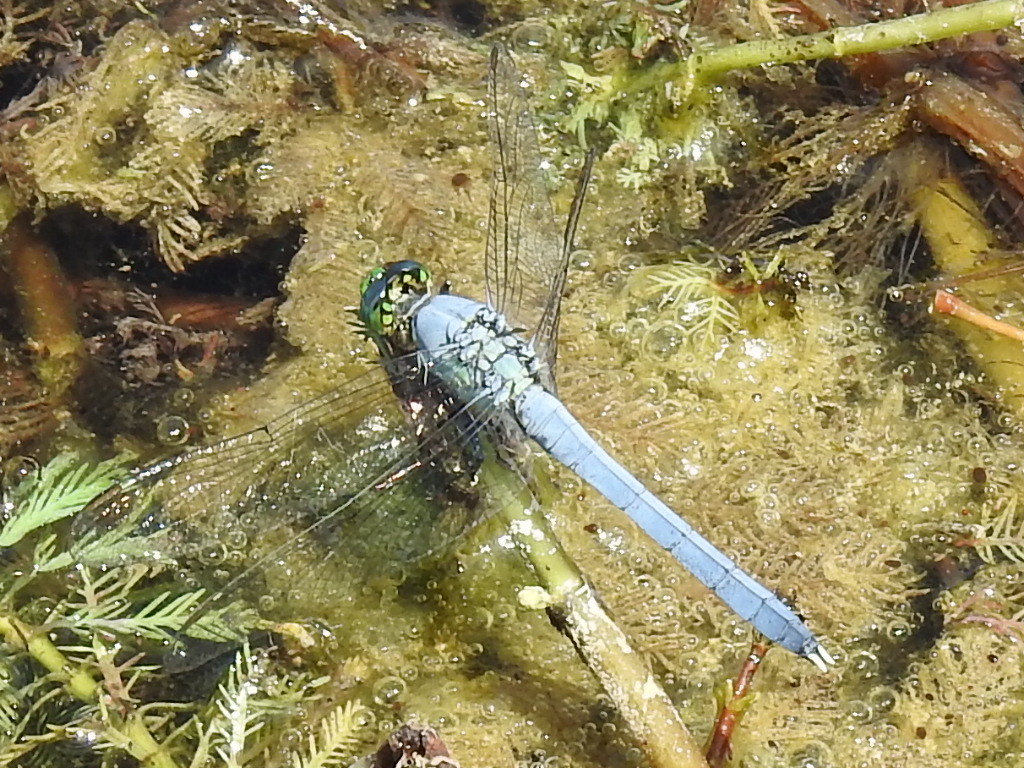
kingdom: Animalia
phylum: Arthropoda
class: Insecta
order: Odonata
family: Libellulidae
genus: Erythemis
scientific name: Erythemis simplicicollis
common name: Eastern pondhawk
